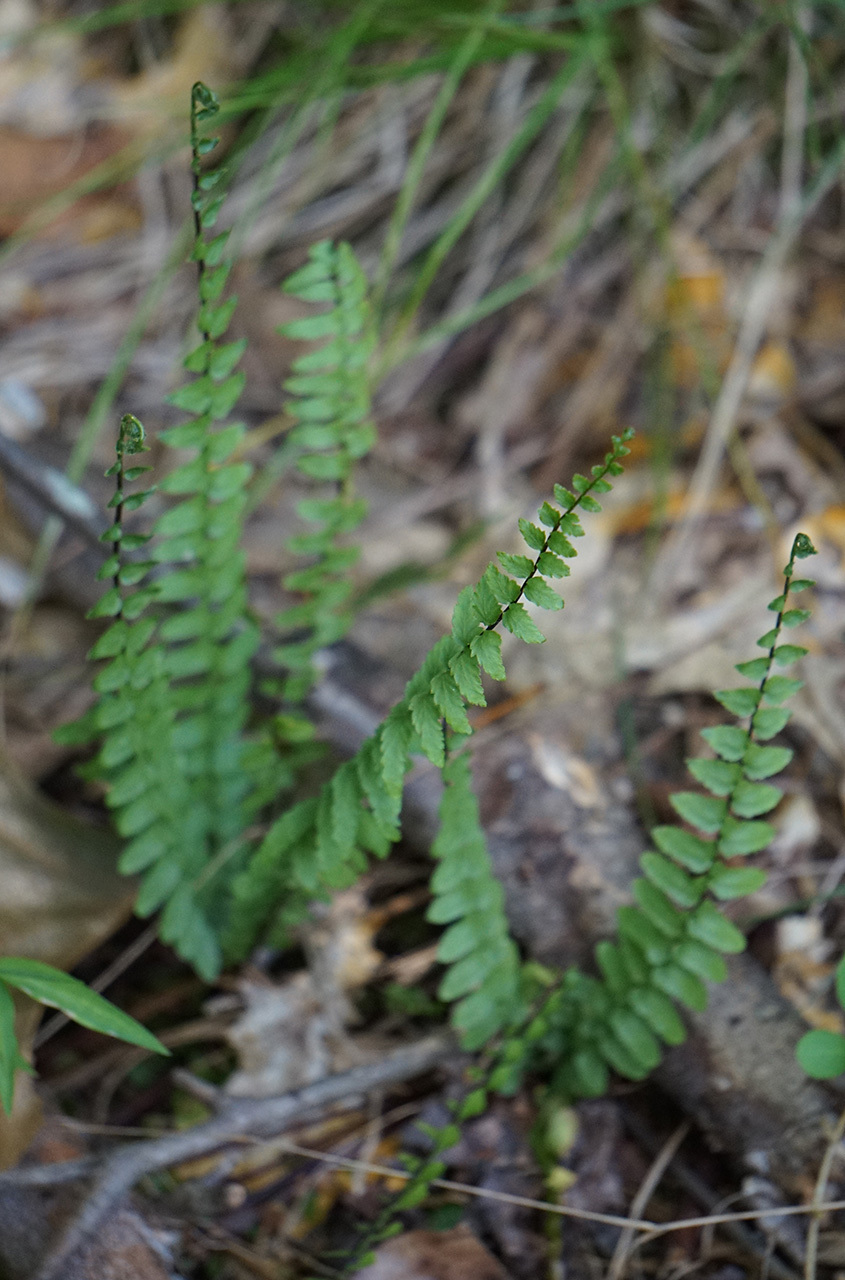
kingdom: Plantae
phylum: Tracheophyta
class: Polypodiopsida
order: Polypodiales
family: Aspleniaceae
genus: Asplenium
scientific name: Asplenium platyneuron
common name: Ebony spleenwort
